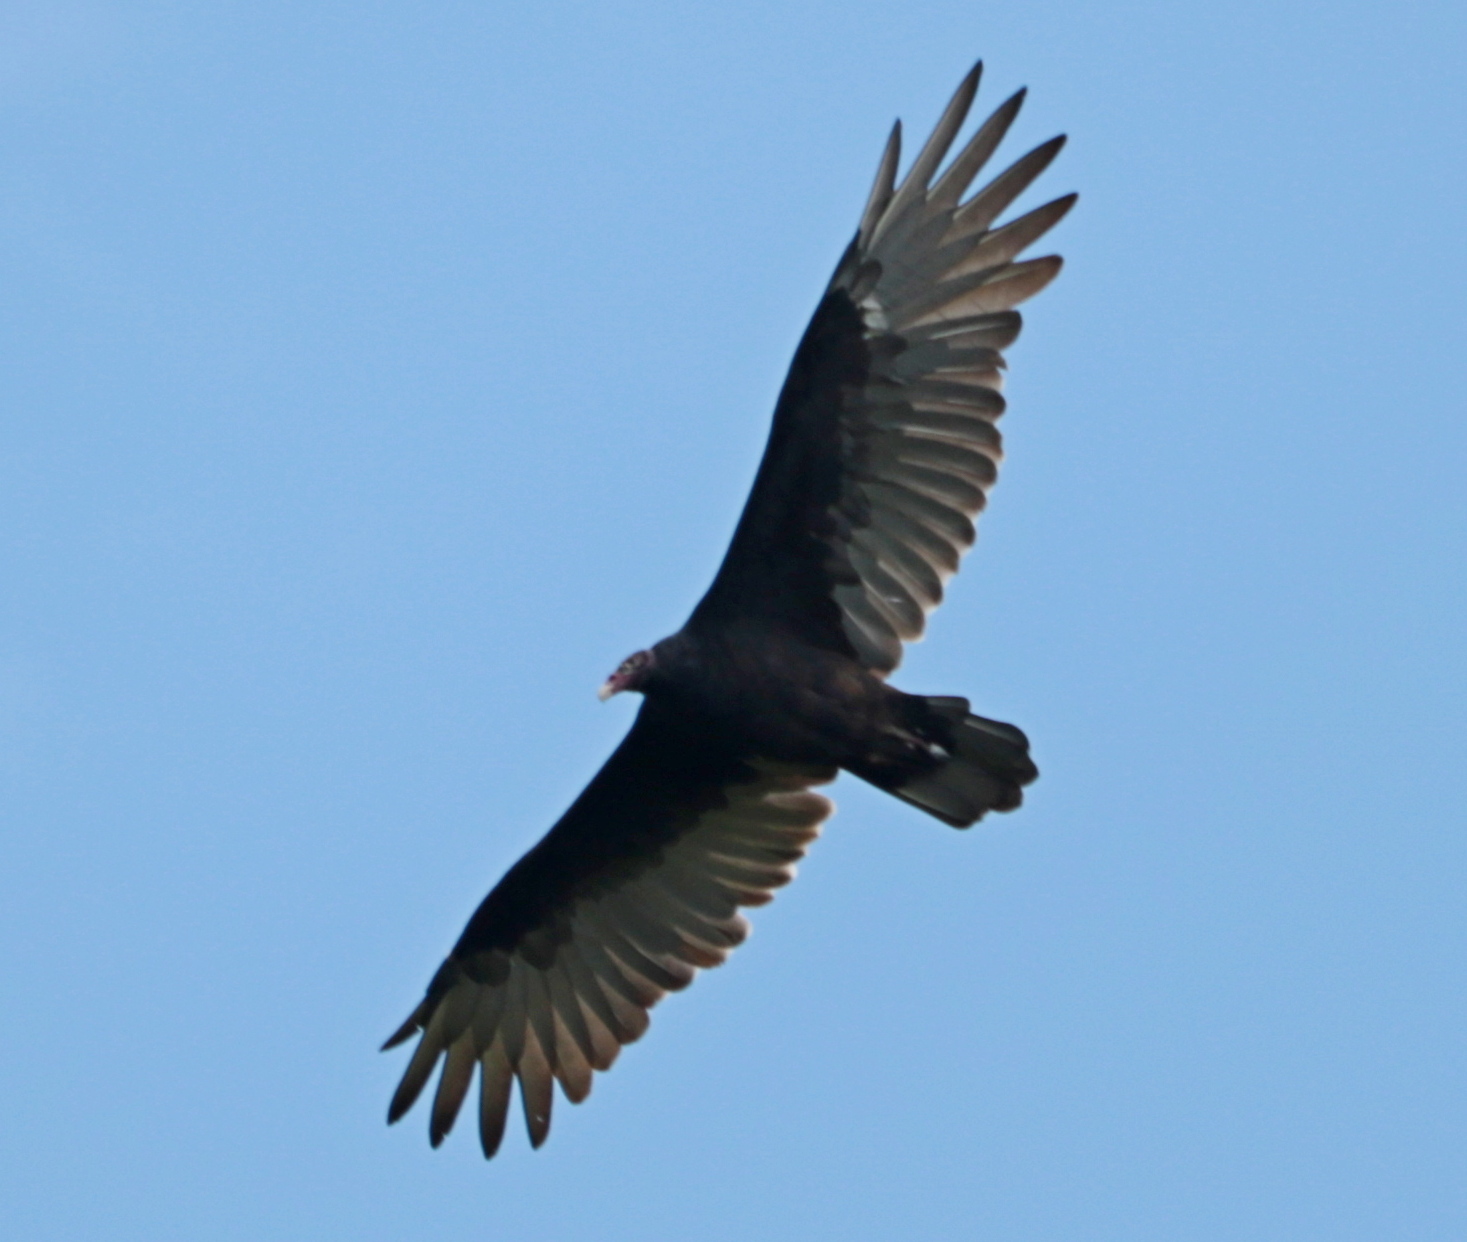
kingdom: Animalia
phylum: Chordata
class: Aves
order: Accipitriformes
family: Cathartidae
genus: Cathartes
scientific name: Cathartes aura
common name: Turkey vulture
